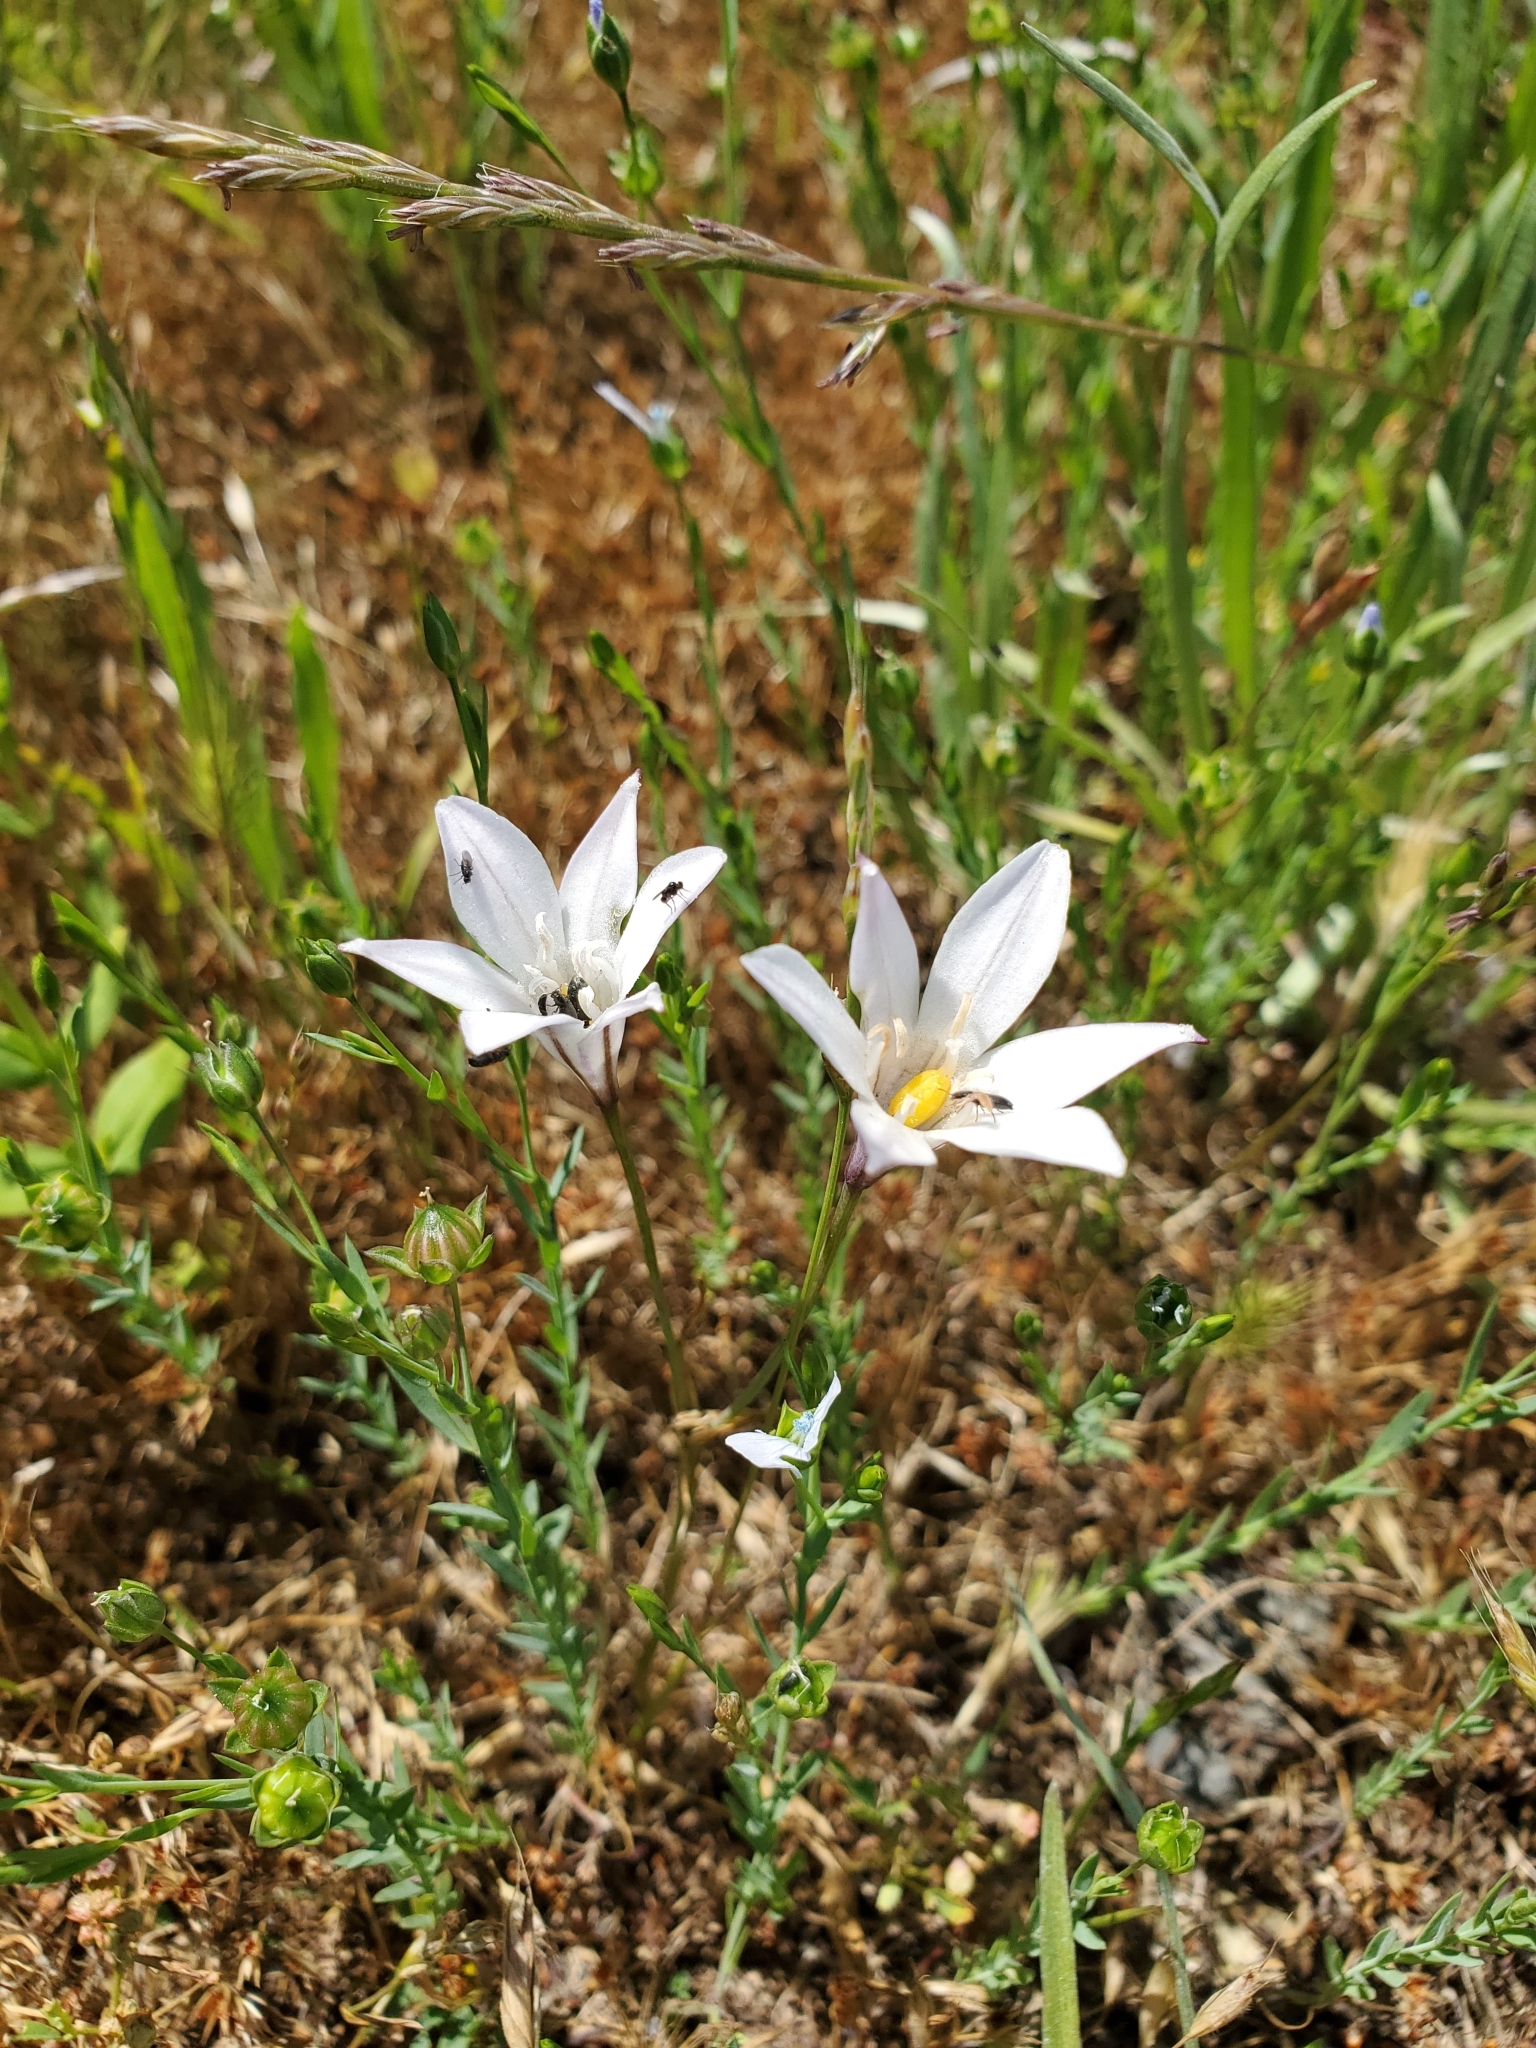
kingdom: Plantae
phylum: Tracheophyta
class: Liliopsida
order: Asparagales
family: Asparagaceae
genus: Triteleia
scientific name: Triteleia peduncularis
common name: Long-ray brodiaea
